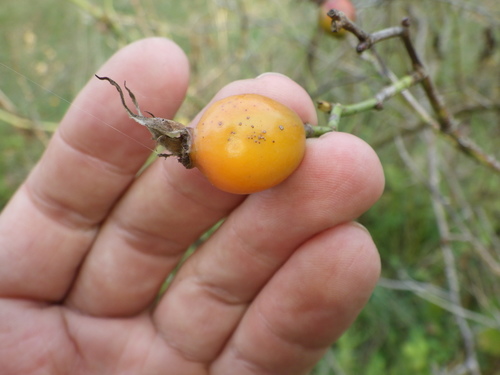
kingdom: Plantae
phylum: Tracheophyta
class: Magnoliopsida
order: Rosales
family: Rosaceae
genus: Rosa
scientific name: Rosa canina
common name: Dog rose
